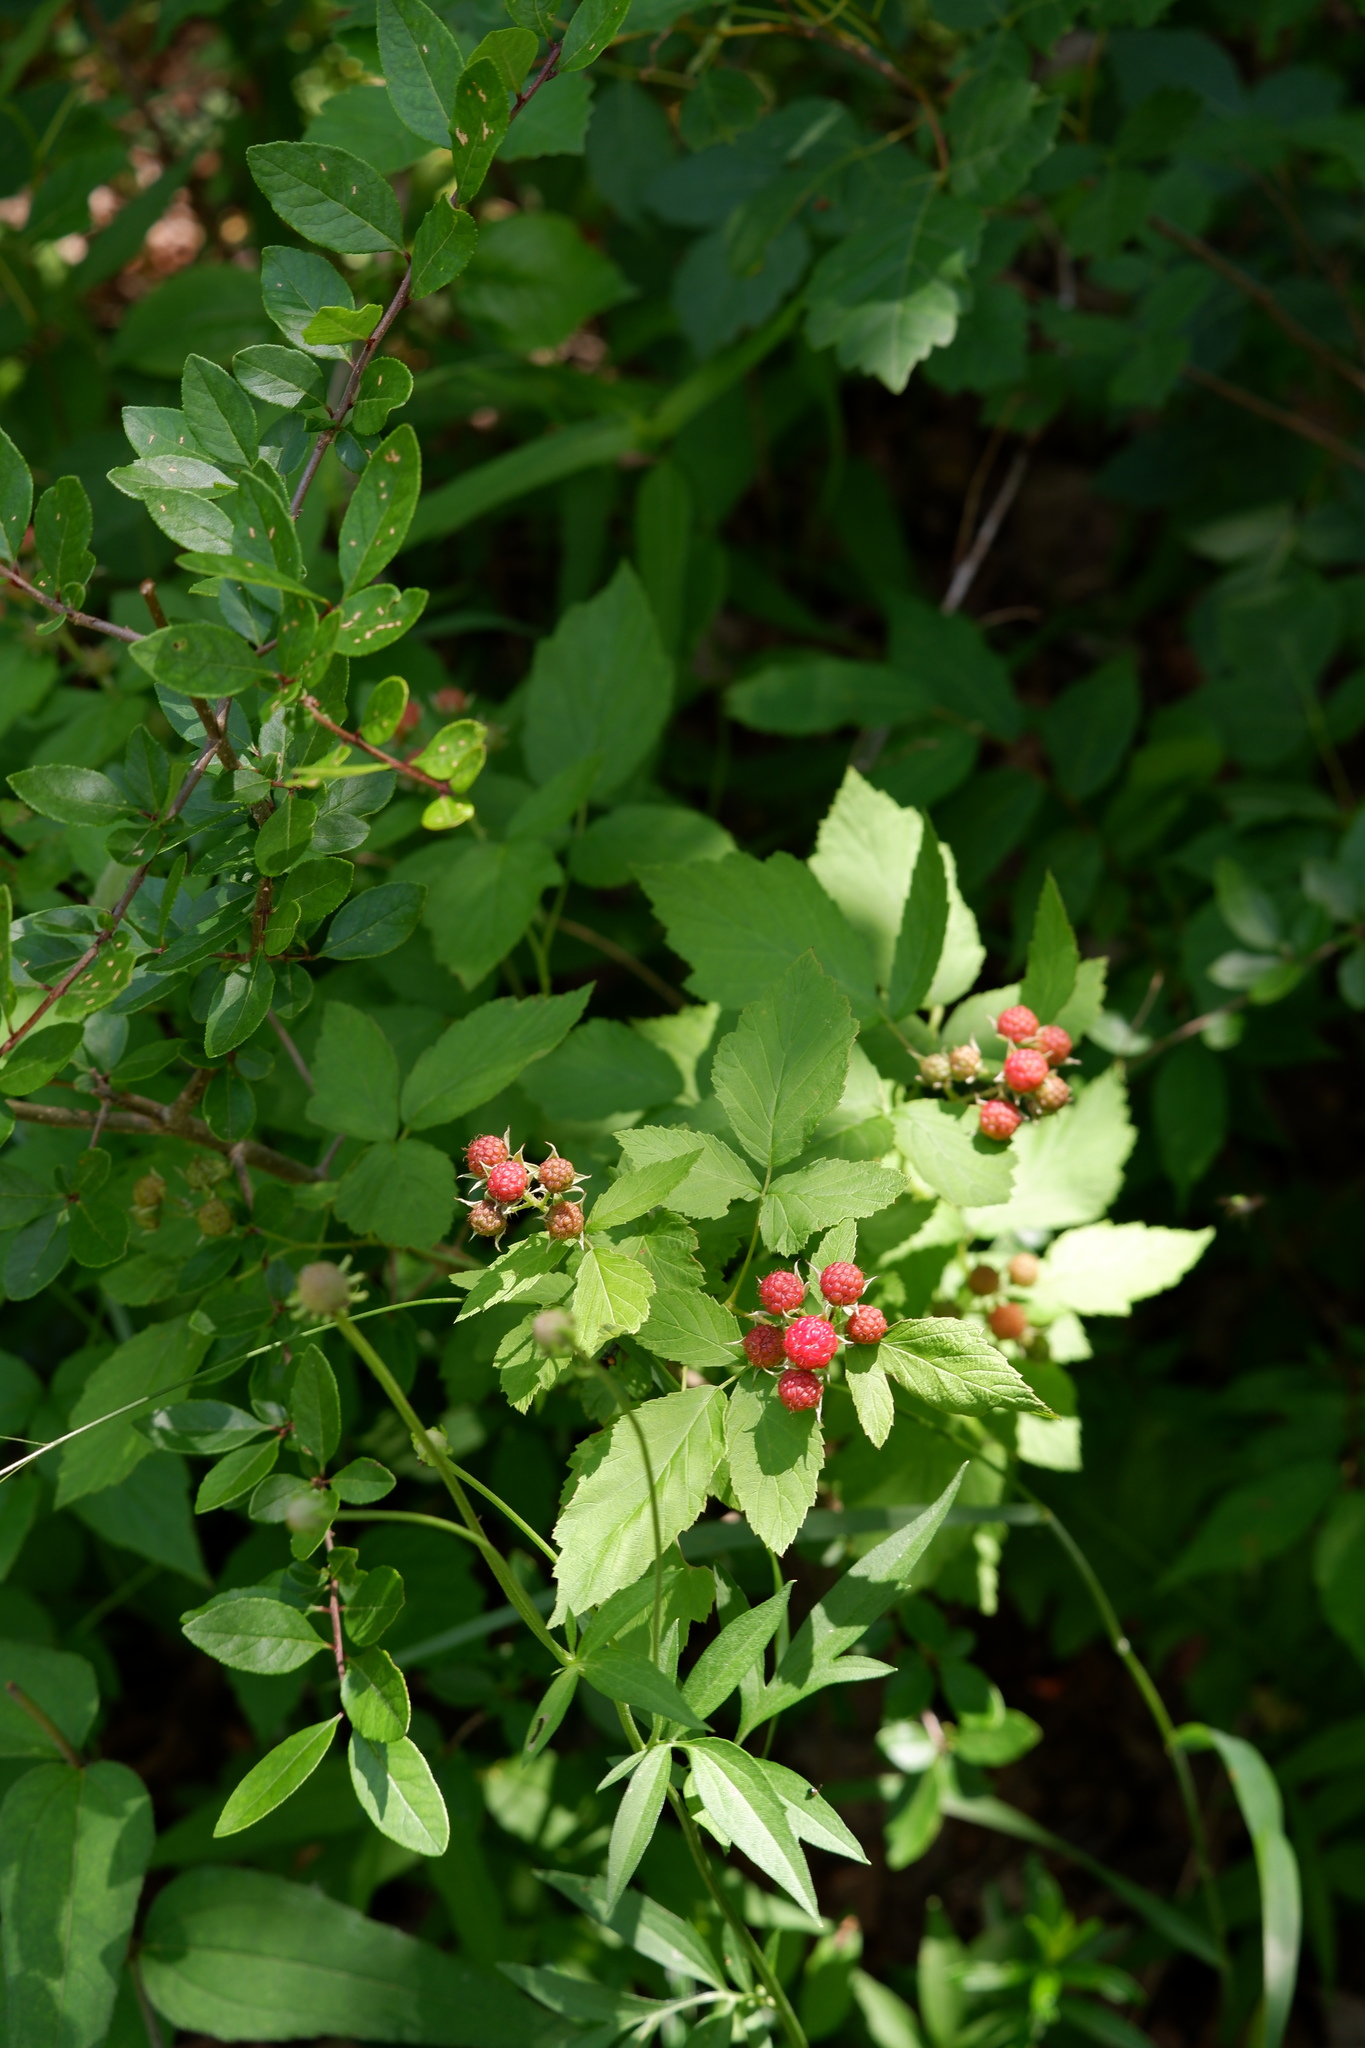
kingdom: Plantae
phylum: Tracheophyta
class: Magnoliopsida
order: Rosales
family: Rosaceae
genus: Rubus
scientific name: Rubus occidentalis
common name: Black raspberry
